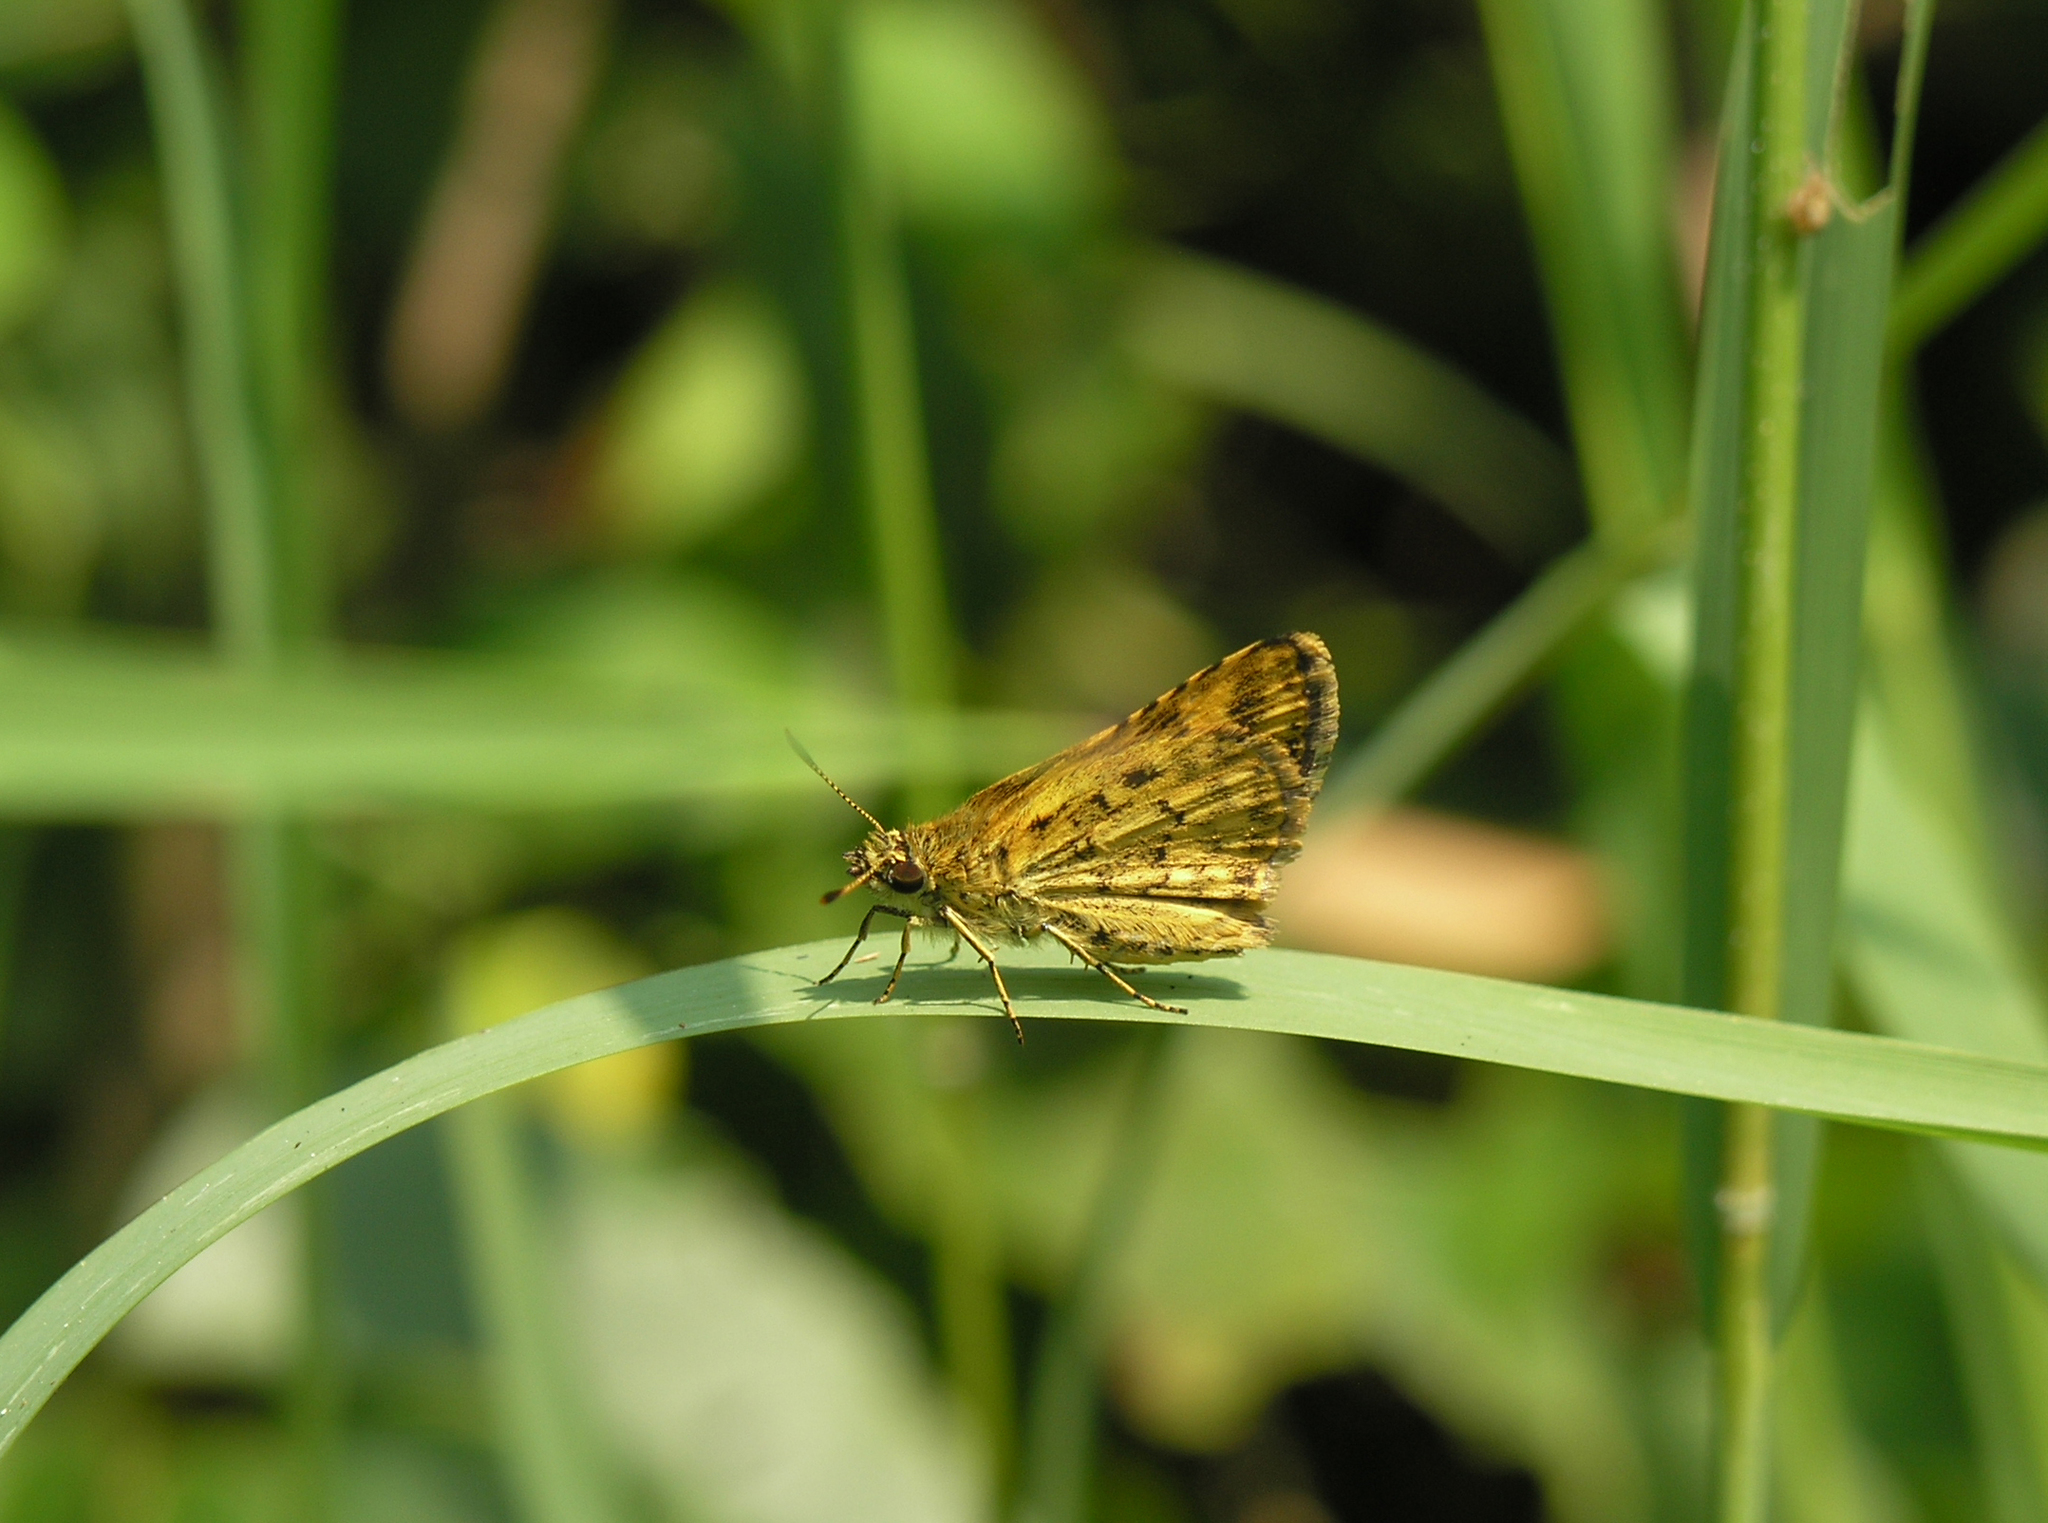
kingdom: Animalia
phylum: Arthropoda
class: Insecta
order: Lepidoptera
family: Hesperiidae
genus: Ampittia
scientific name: Ampittia dioscorides
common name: Common bush hopper
